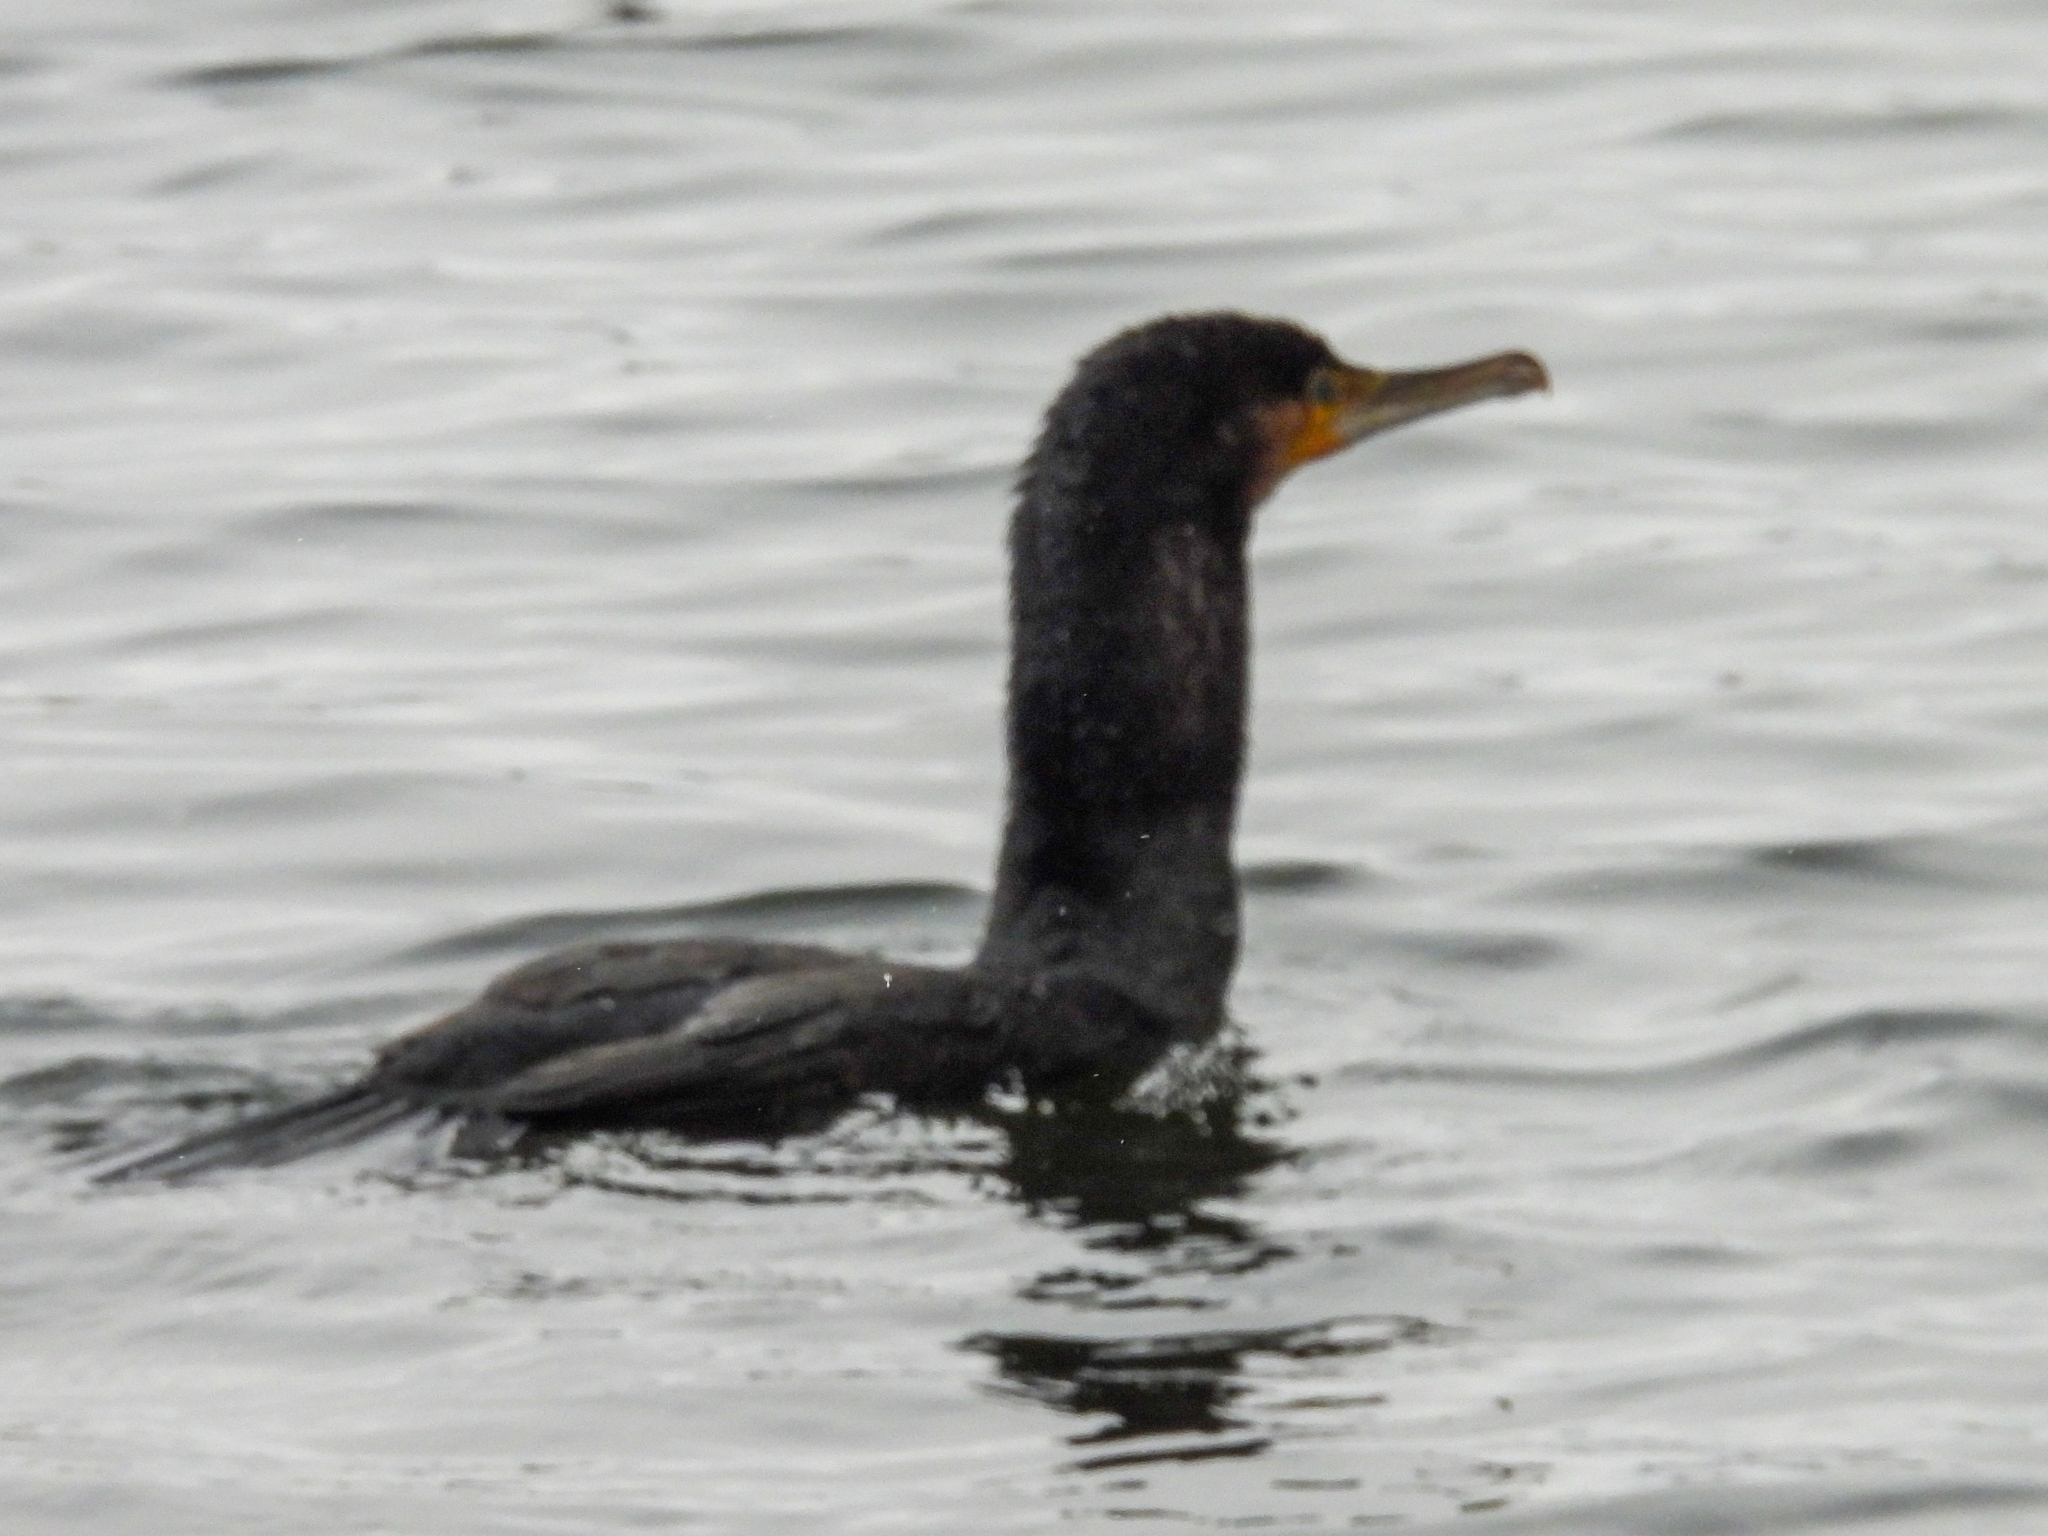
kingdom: Animalia
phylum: Chordata
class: Aves
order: Suliformes
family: Phalacrocoracidae
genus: Phalacrocorax
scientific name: Phalacrocorax carbo
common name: Great cormorant
